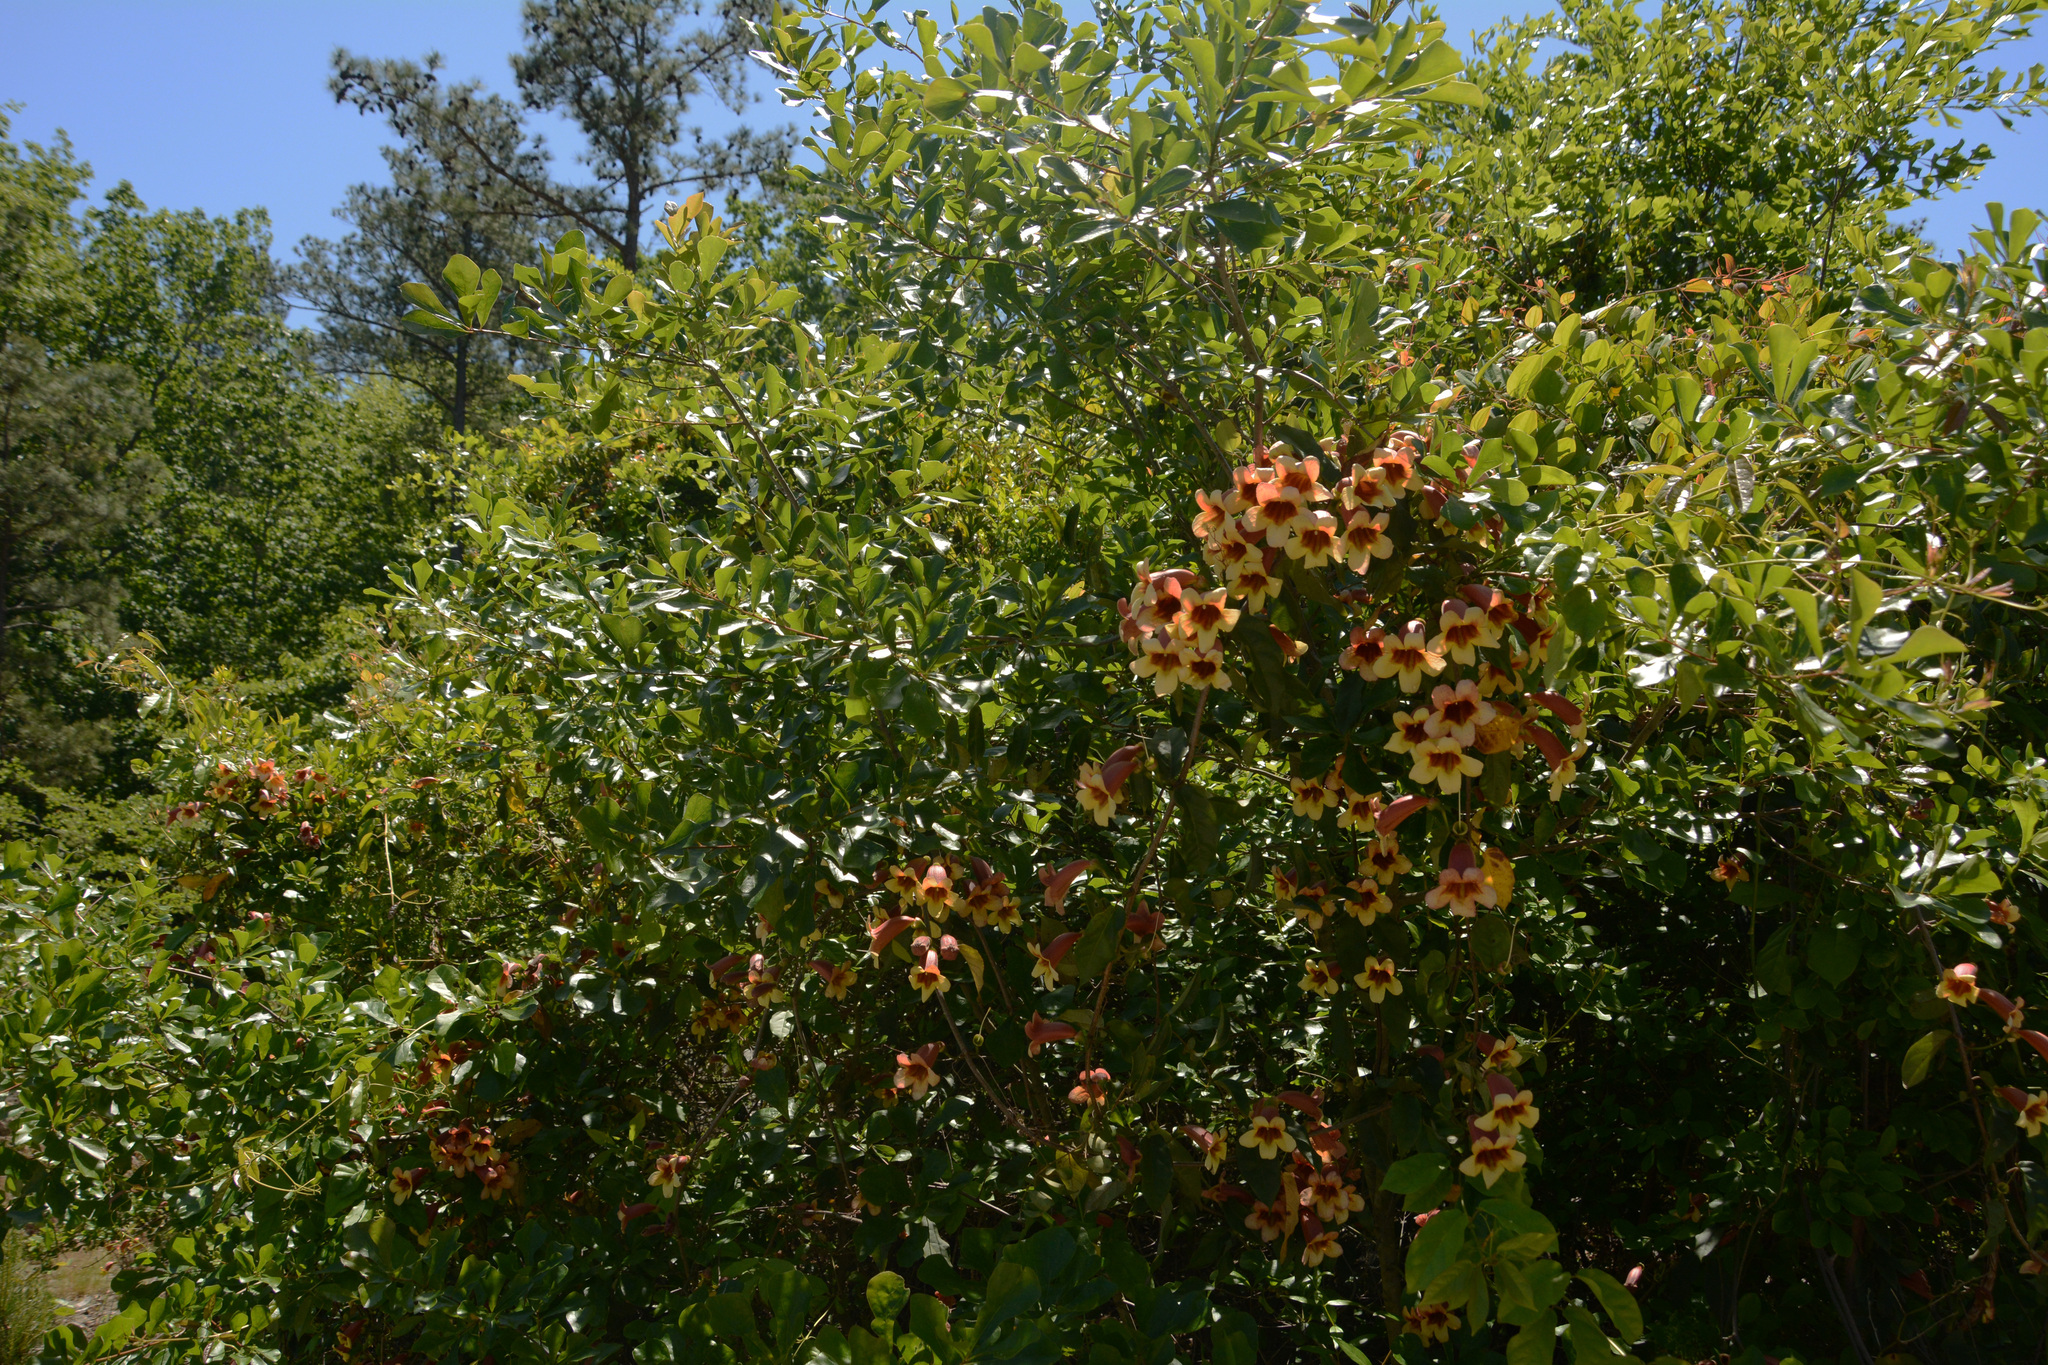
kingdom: Plantae
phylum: Tracheophyta
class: Magnoliopsida
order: Lamiales
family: Bignoniaceae
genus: Bignonia
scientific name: Bignonia capreolata
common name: Crossvine
